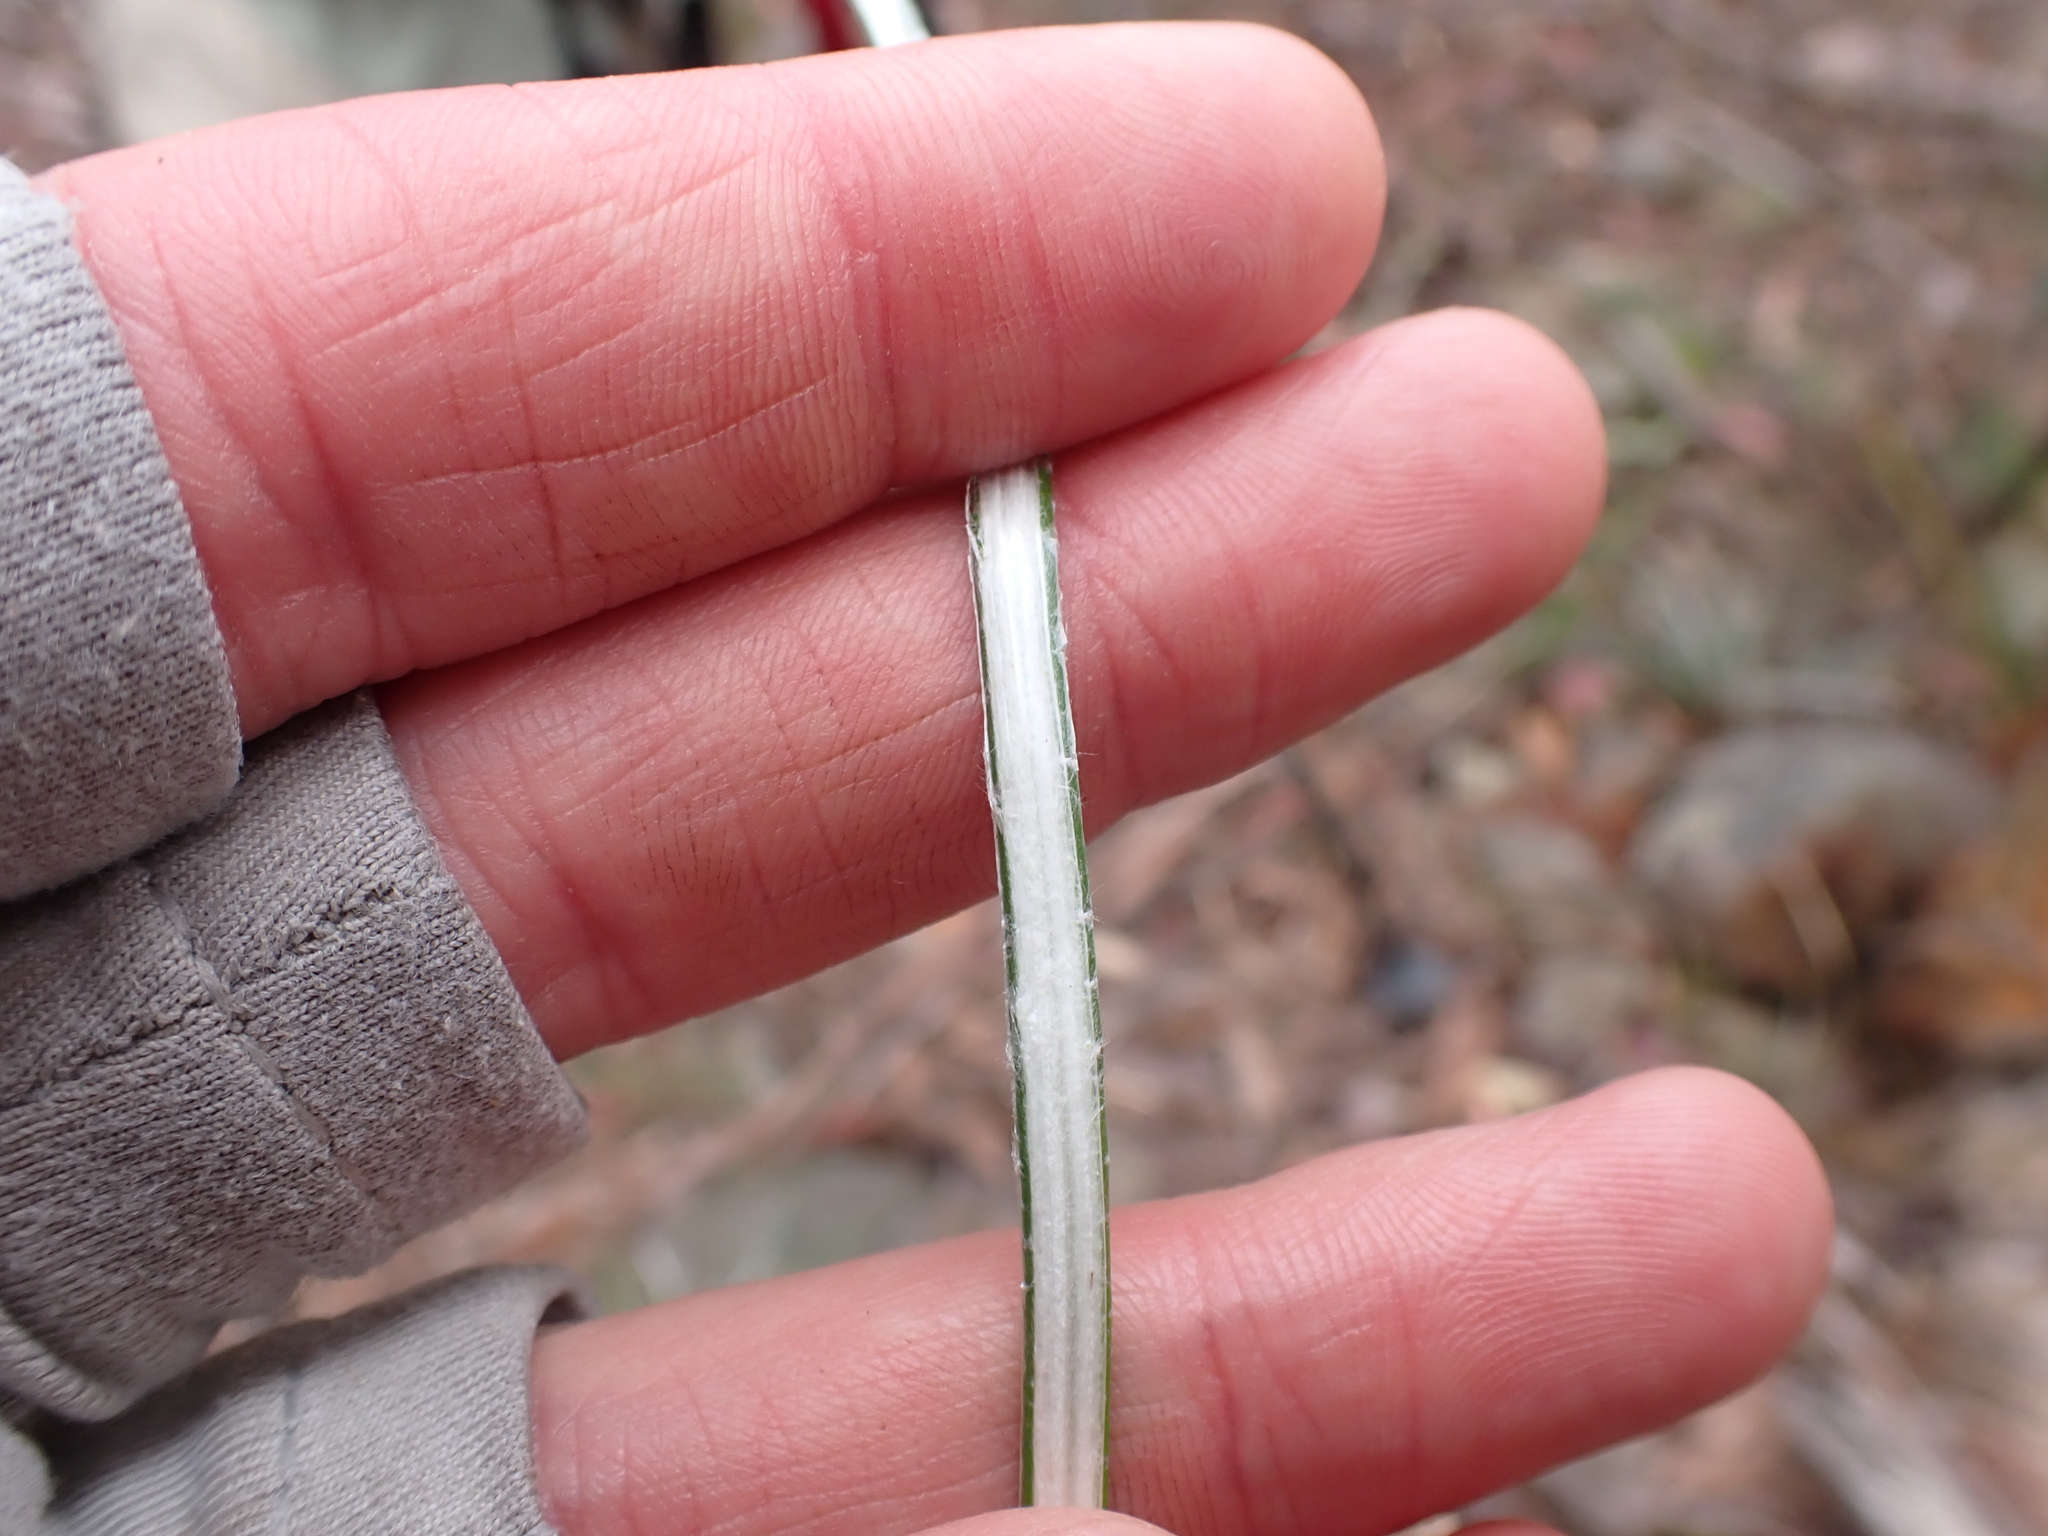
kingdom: Plantae
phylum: Tracheophyta
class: Magnoliopsida
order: Asterales
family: Asteraceae
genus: Celmisia
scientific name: Celmisia pugioniformis
